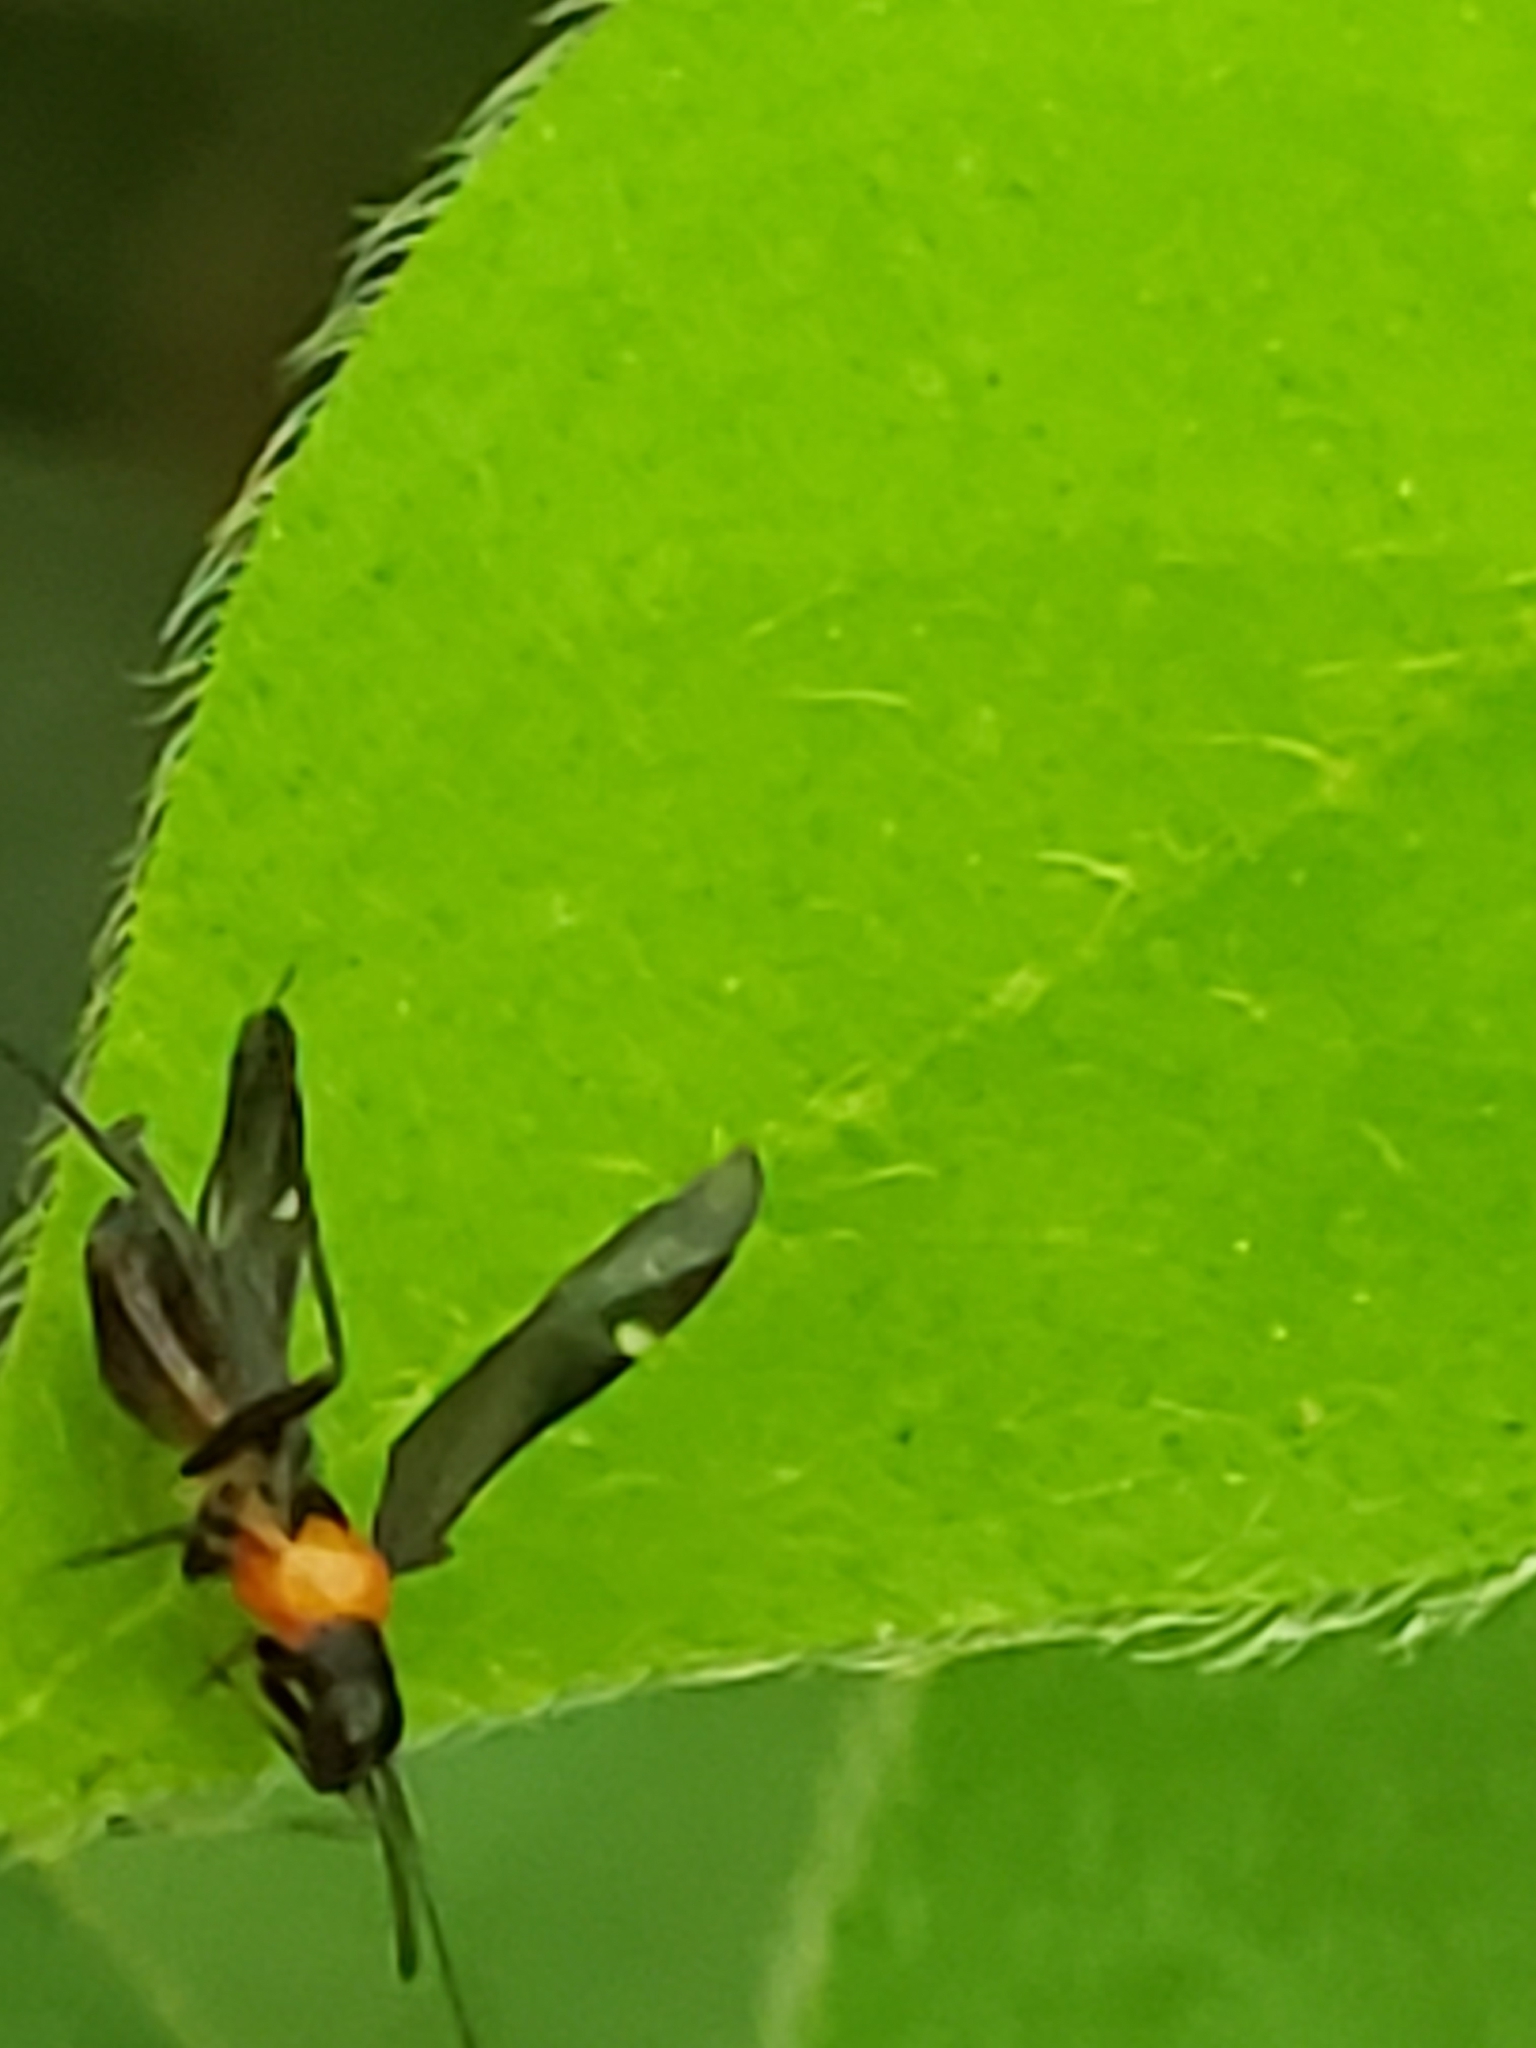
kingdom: Animalia
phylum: Arthropoda
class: Insecta
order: Hemiptera
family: Miridae
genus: Pseudoxenetus
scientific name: Pseudoxenetus regalis
